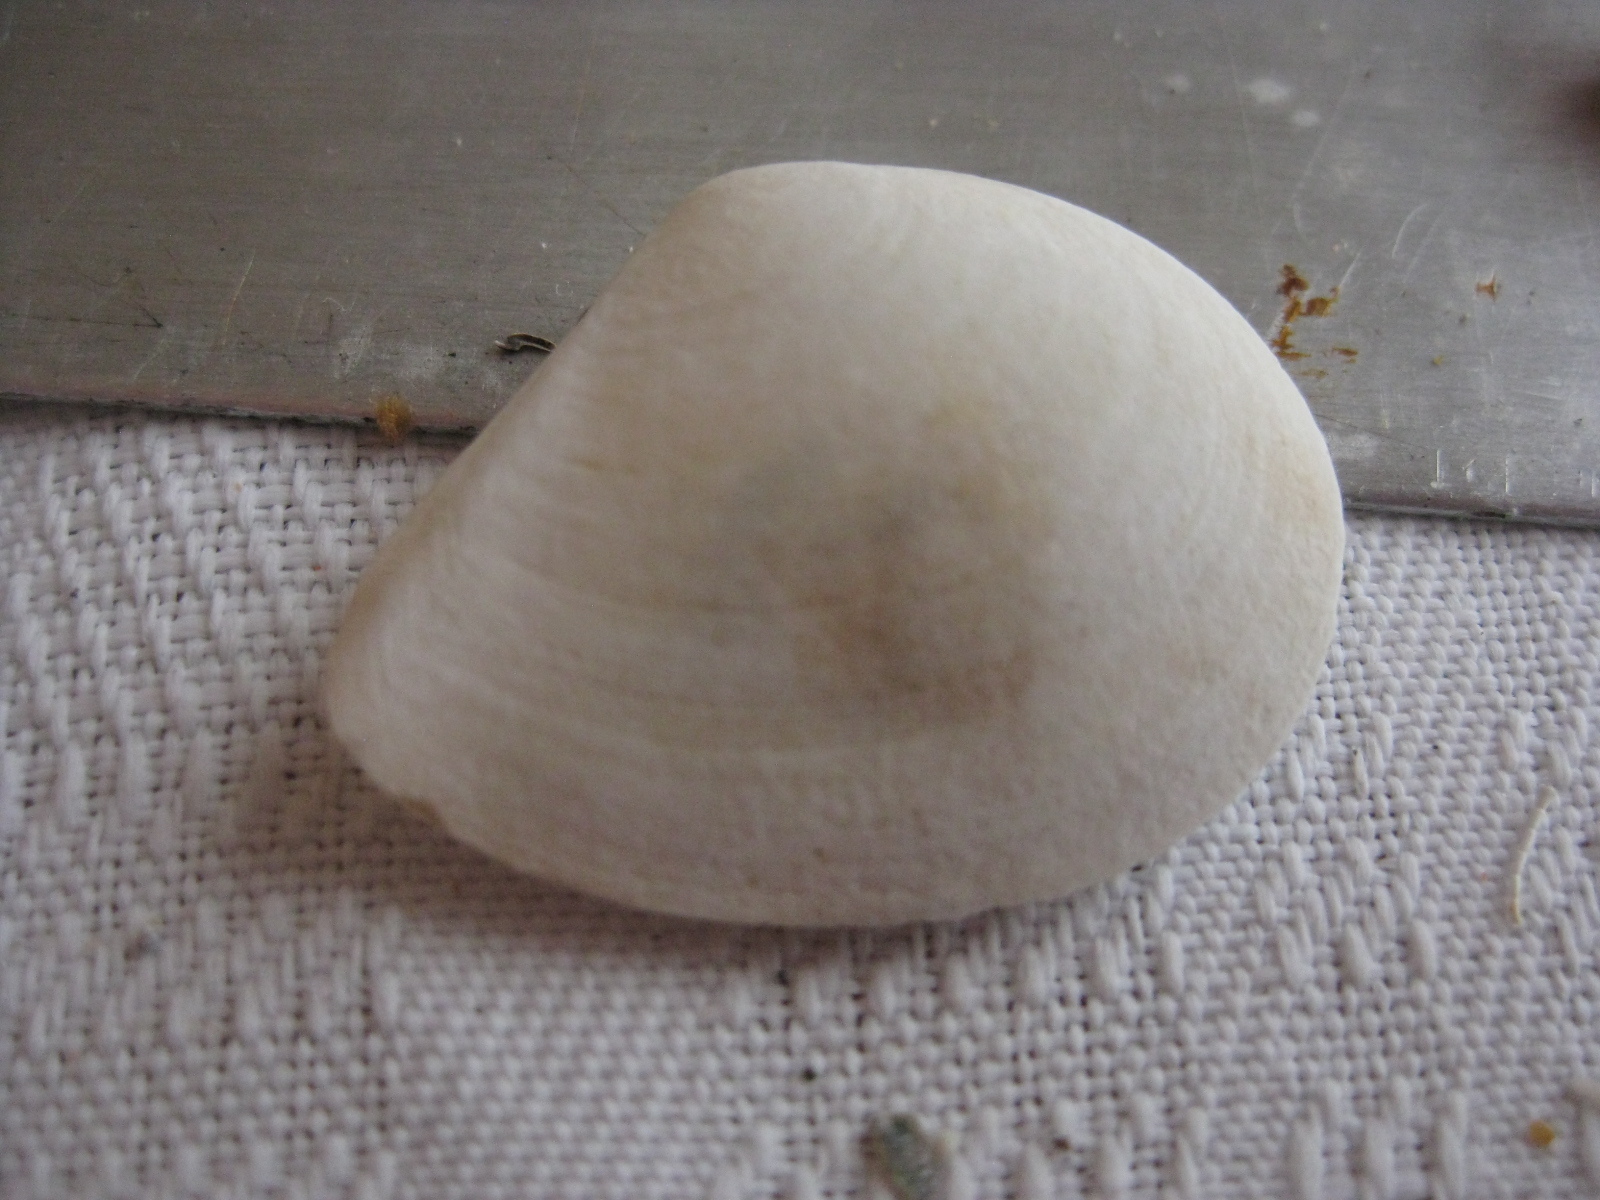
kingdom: Animalia
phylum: Mollusca
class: Bivalvia
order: Cardiida
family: Tellinidae
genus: Macomona
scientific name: Macomona liliana
